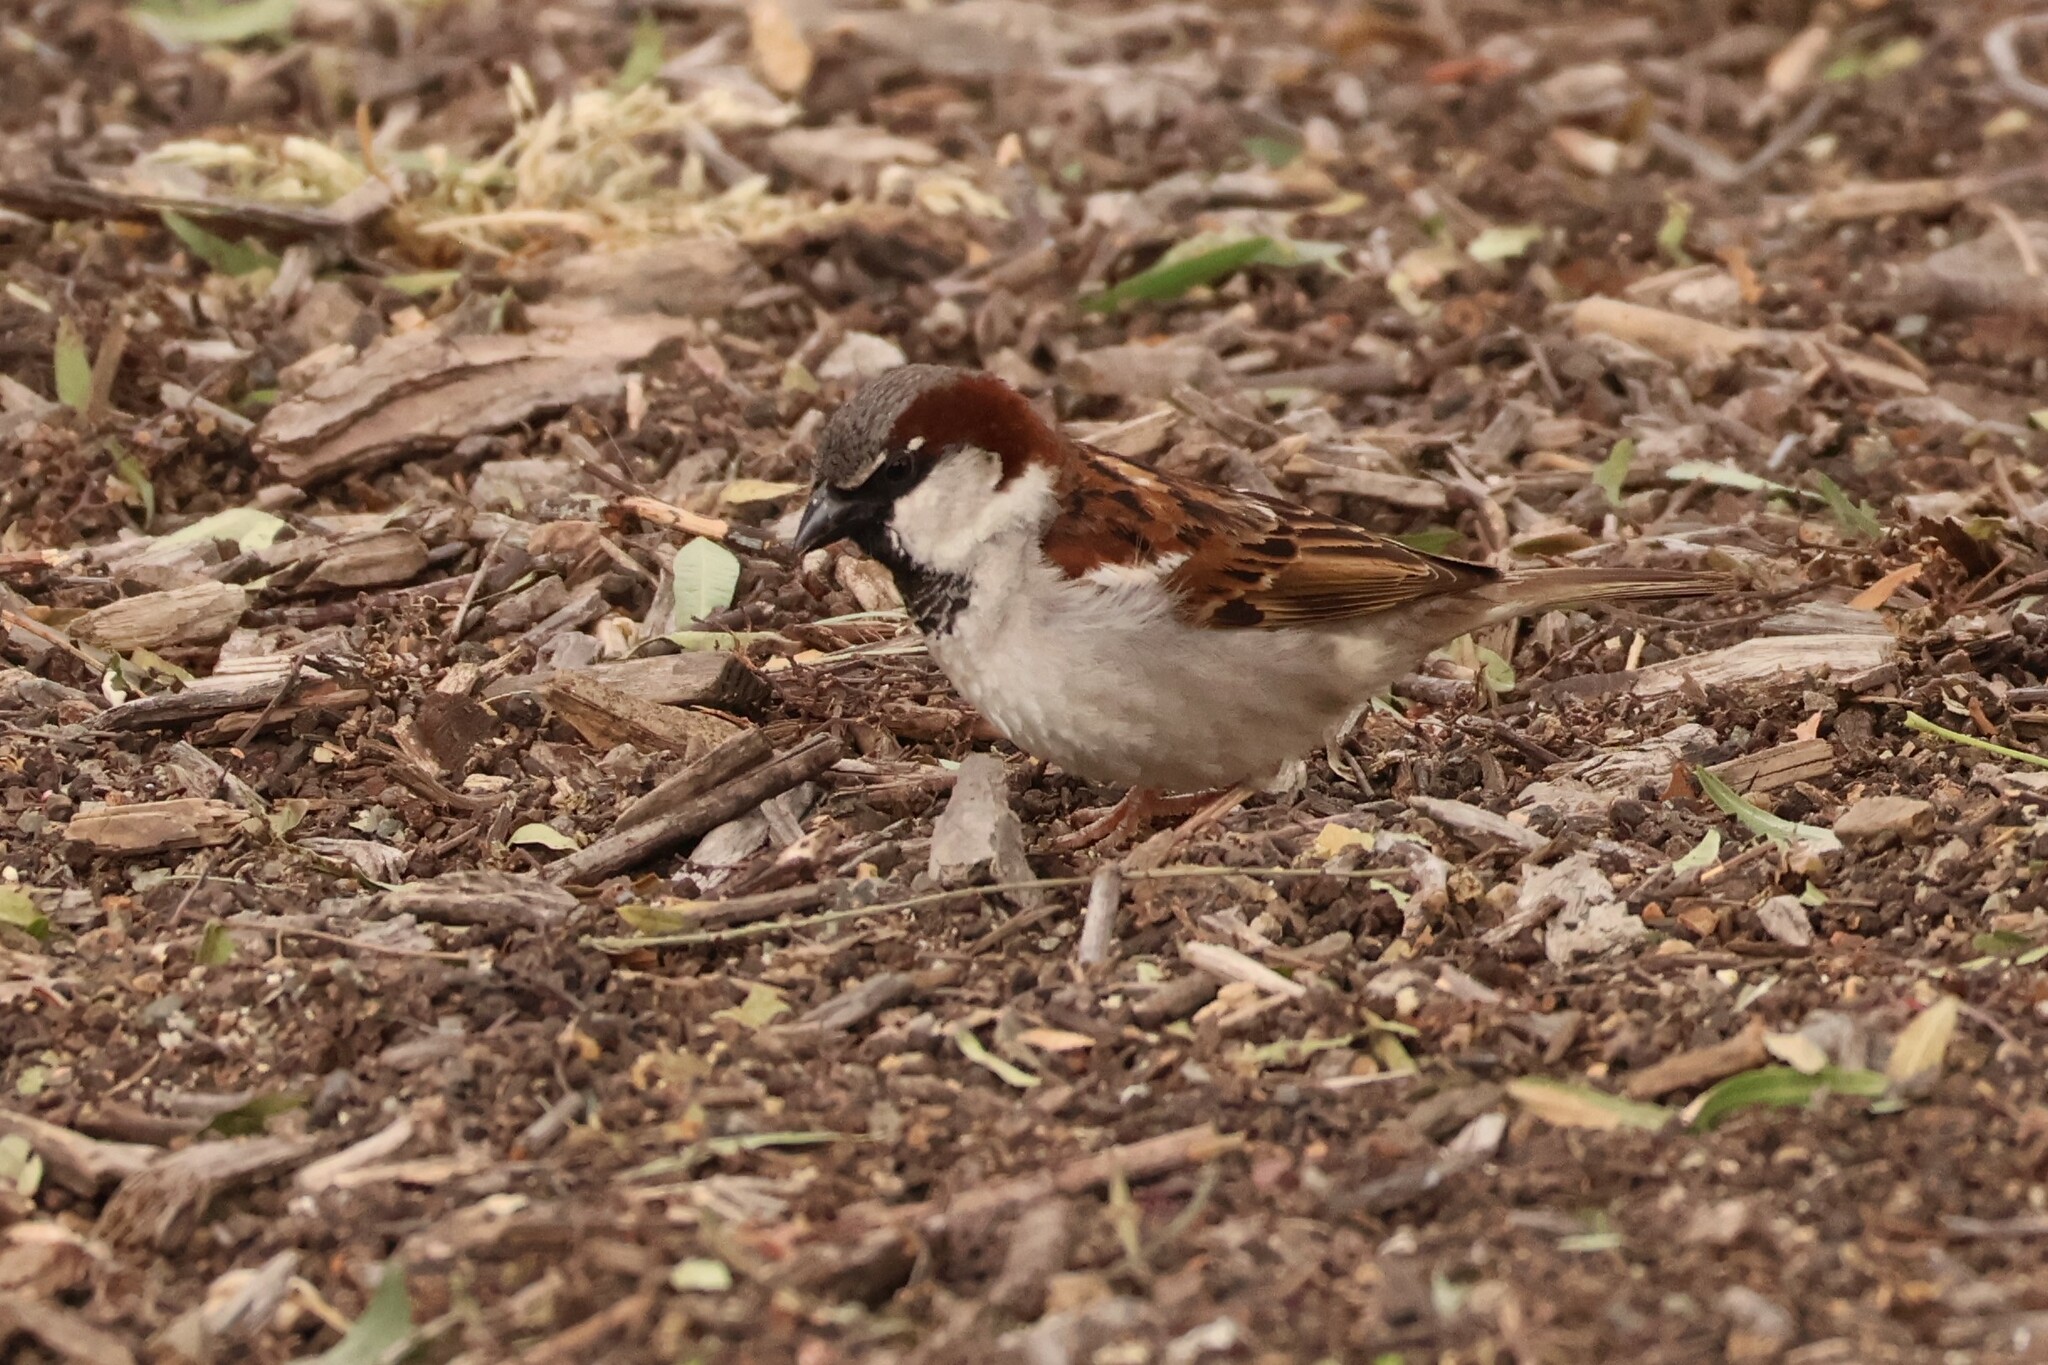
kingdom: Animalia
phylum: Chordata
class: Aves
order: Passeriformes
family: Passeridae
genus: Passer
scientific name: Passer domesticus
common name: House sparrow
